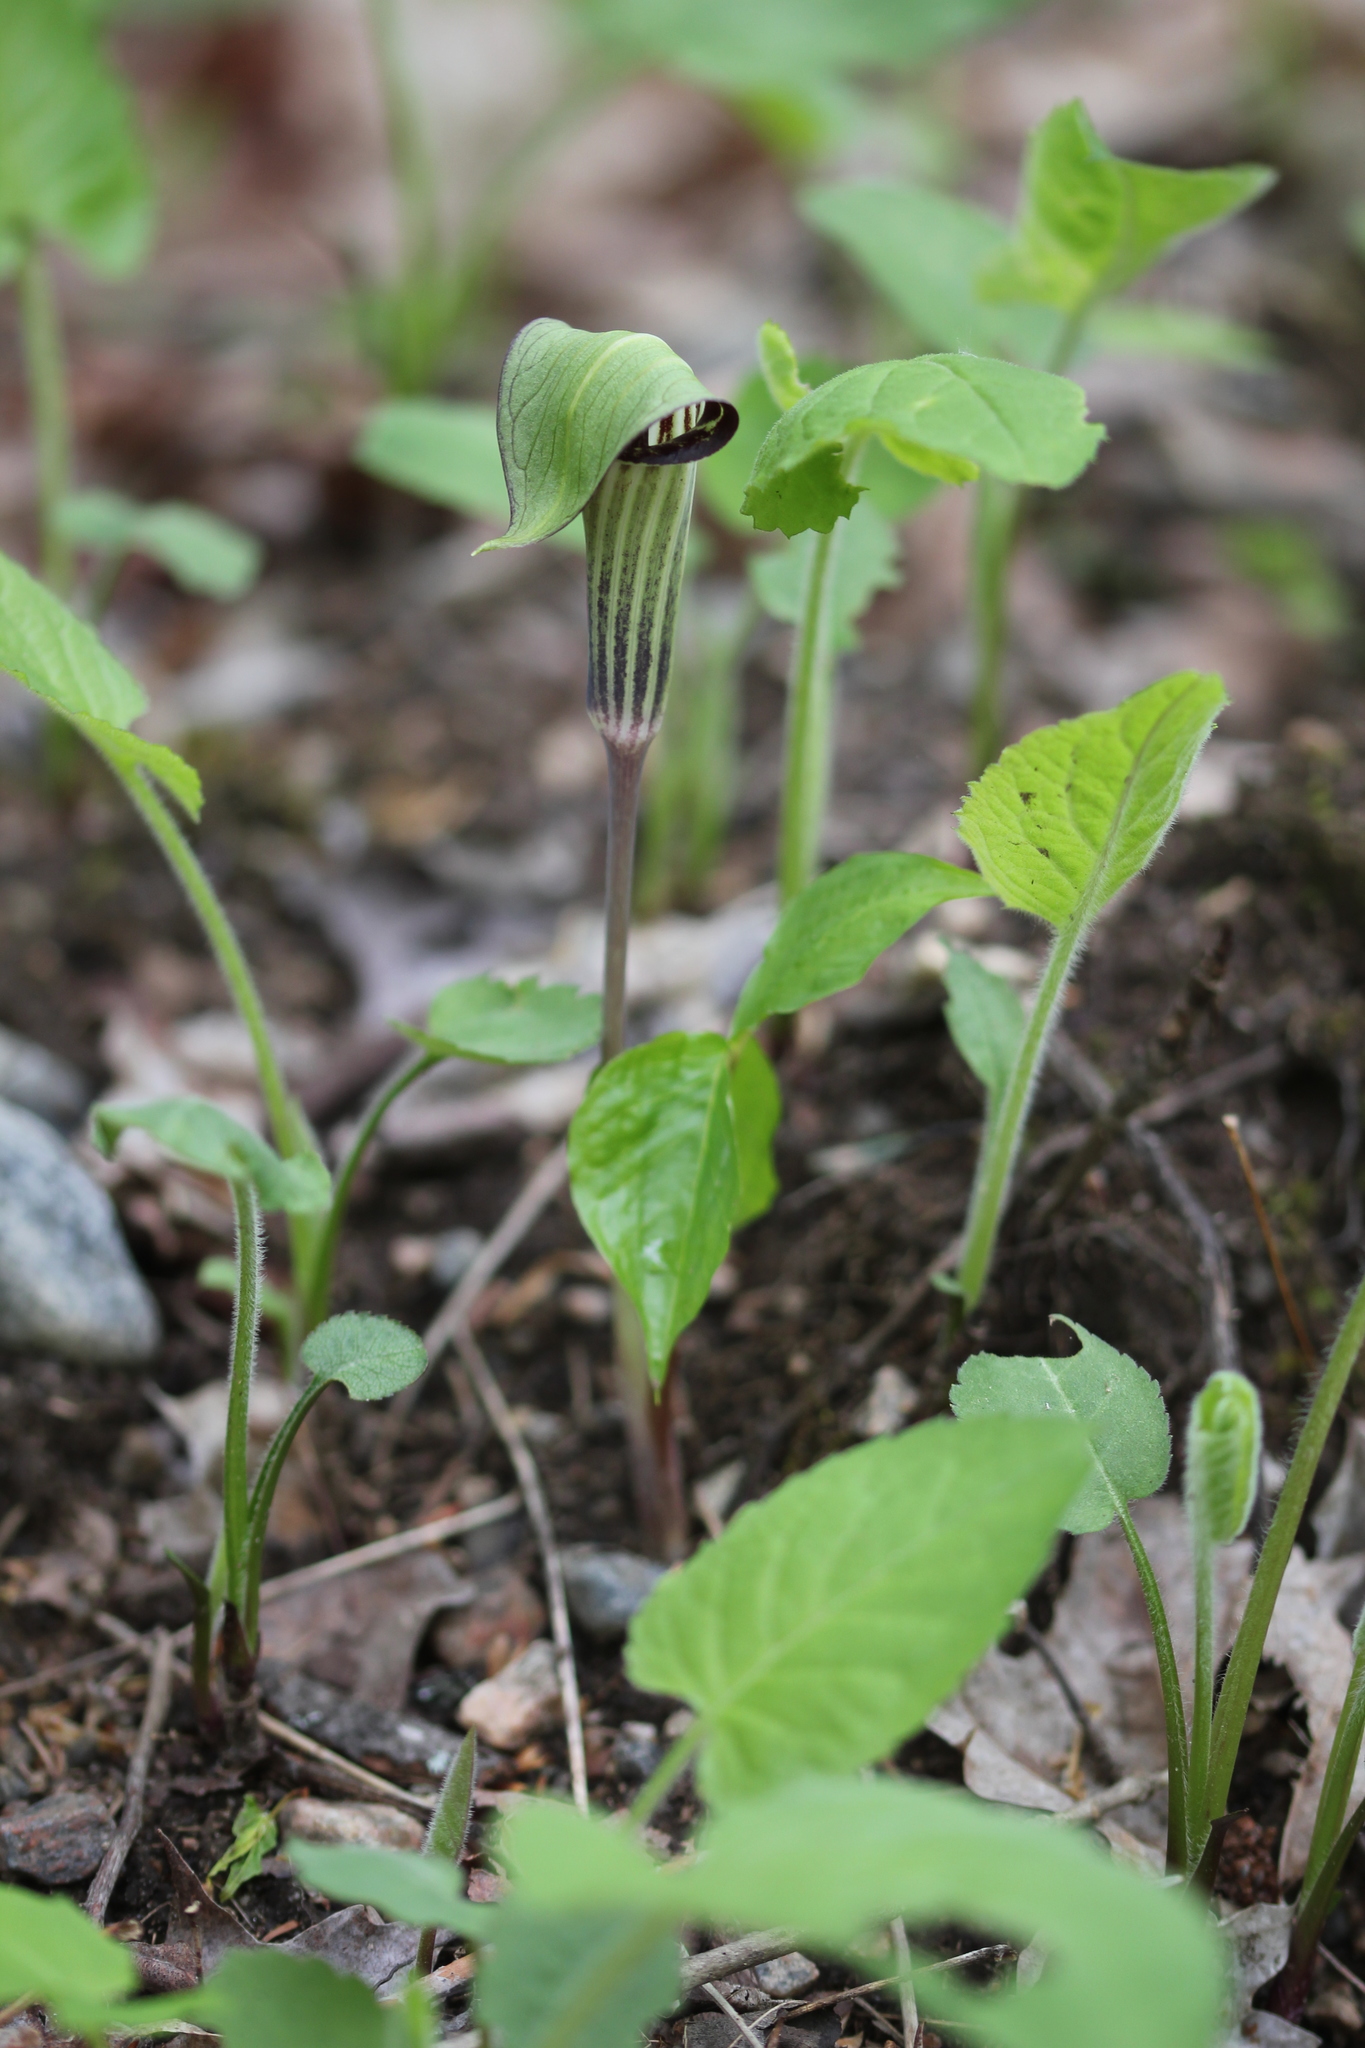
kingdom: Plantae
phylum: Tracheophyta
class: Liliopsida
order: Alismatales
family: Araceae
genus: Arisaema
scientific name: Arisaema triphyllum
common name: Jack-in-the-pulpit
